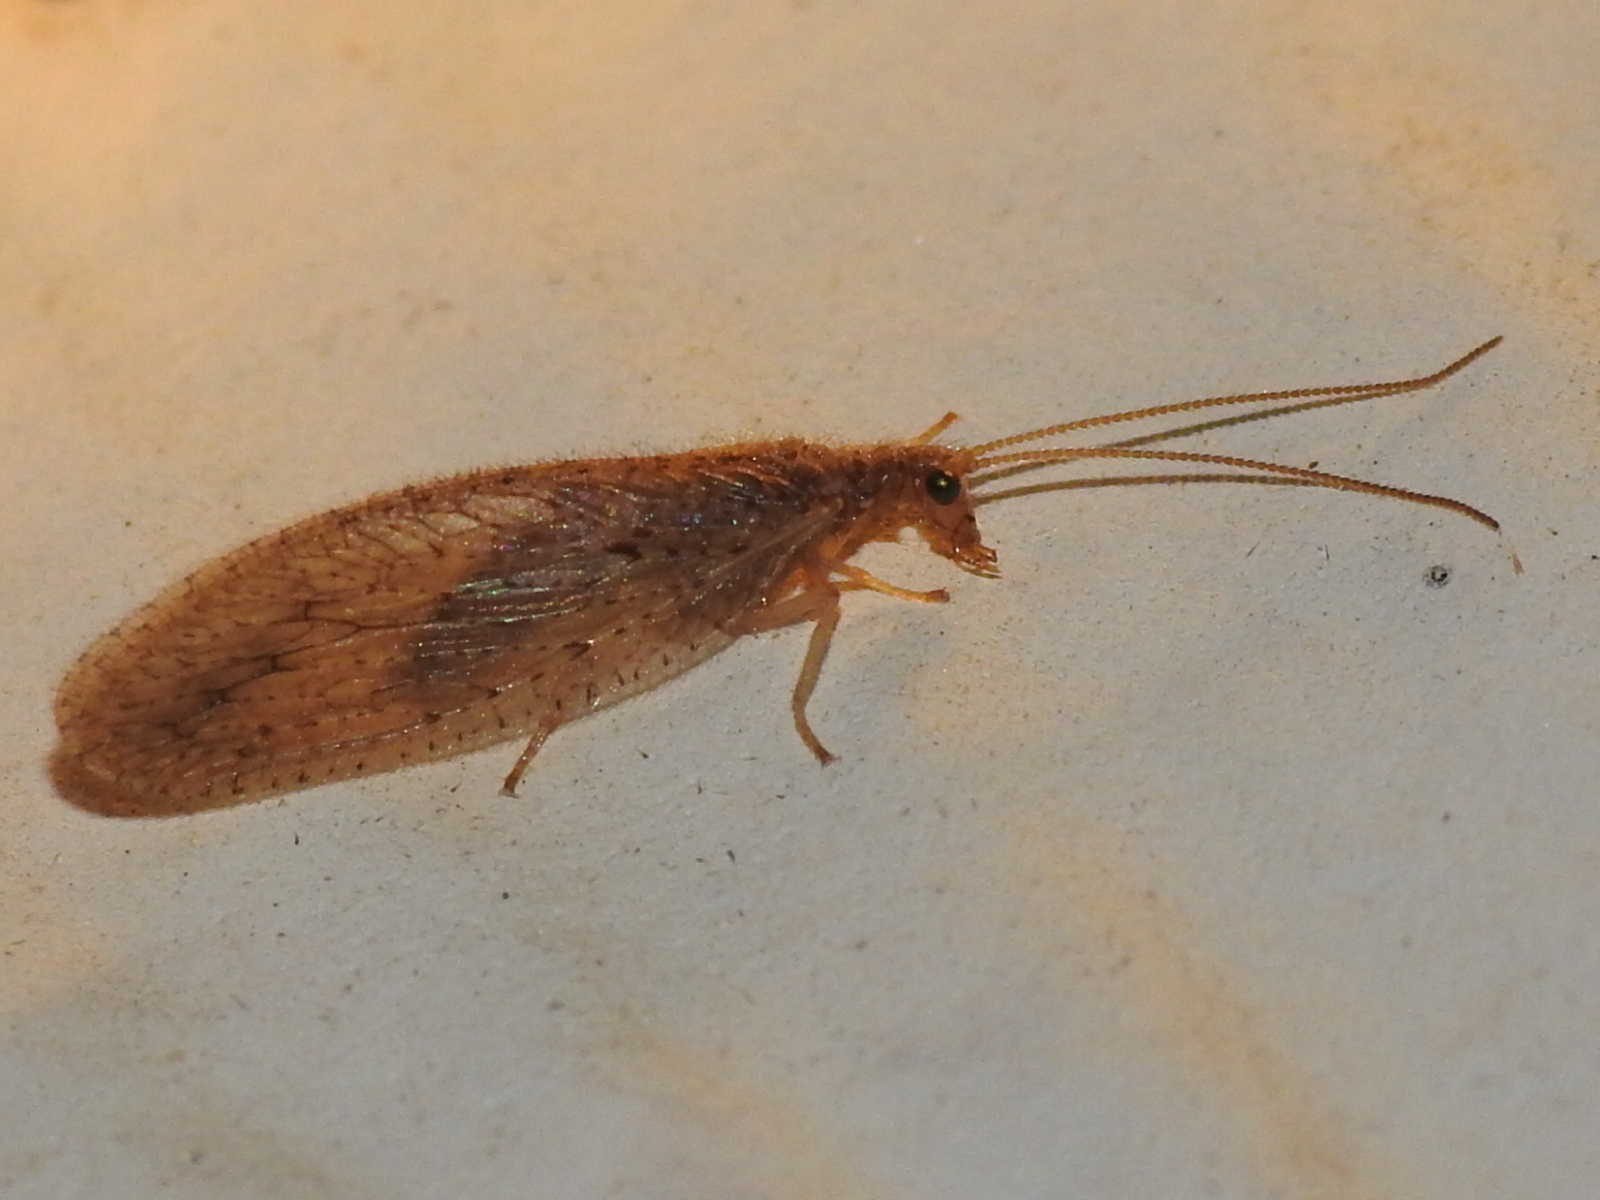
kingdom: Animalia
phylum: Arthropoda
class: Insecta
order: Neuroptera
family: Hemerobiidae
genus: Micromus
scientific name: Micromus subanticus
